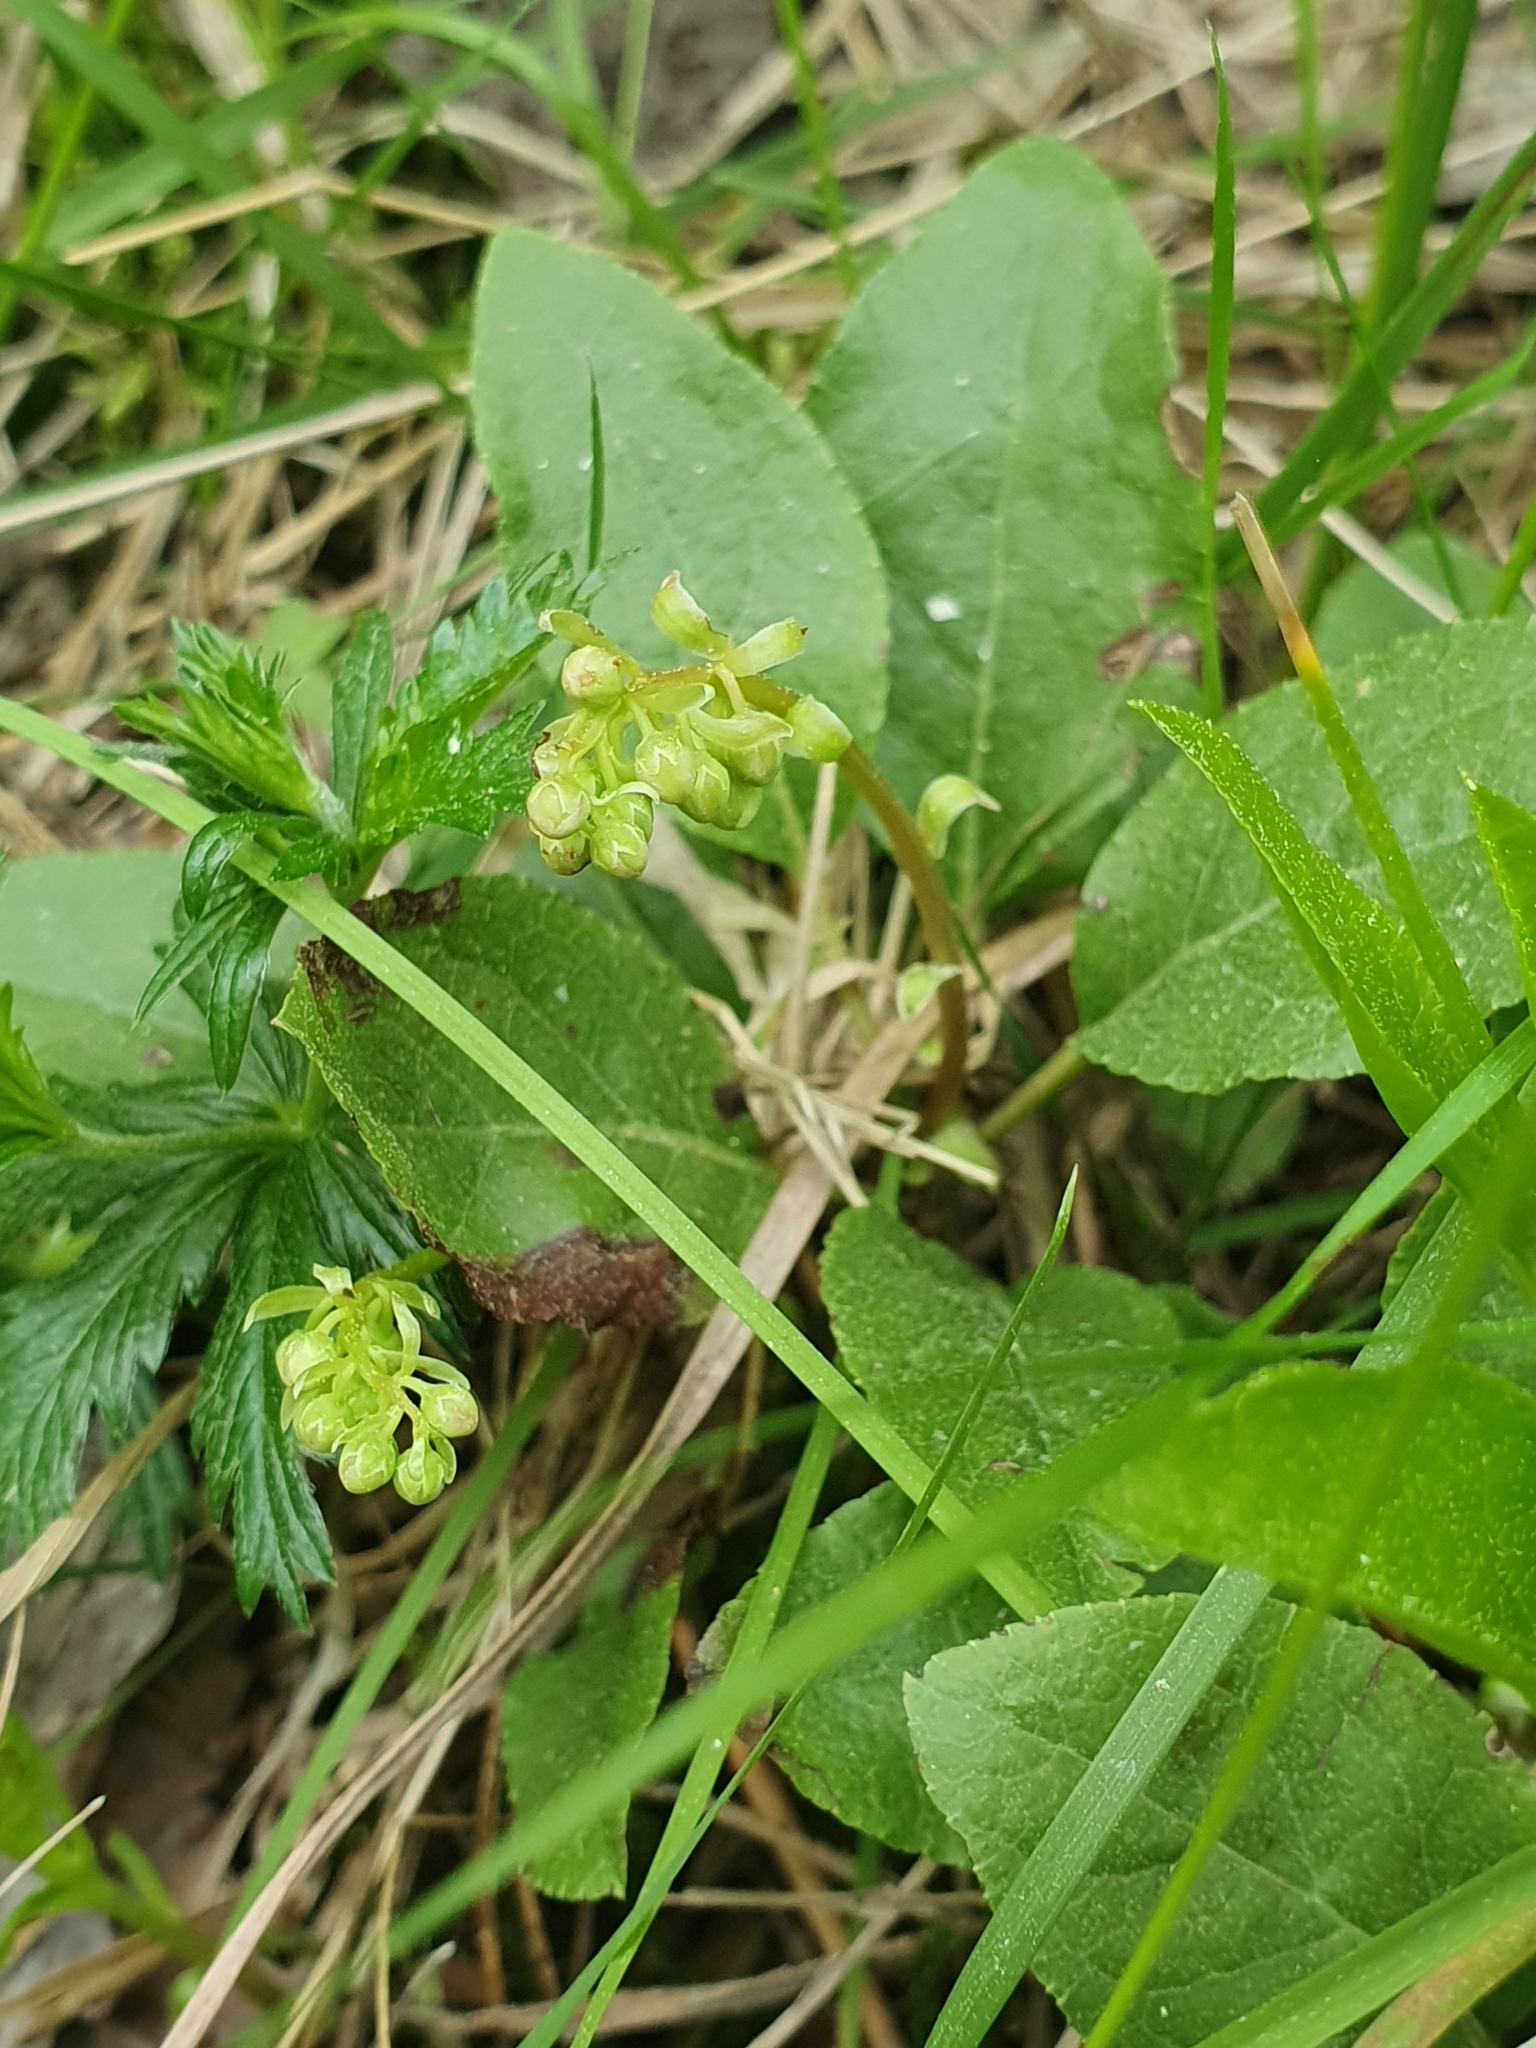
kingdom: Plantae
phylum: Tracheophyta
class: Magnoliopsida
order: Ericales
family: Ericaceae
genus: Orthilia
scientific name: Orthilia secunda
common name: One-sided orthilia
